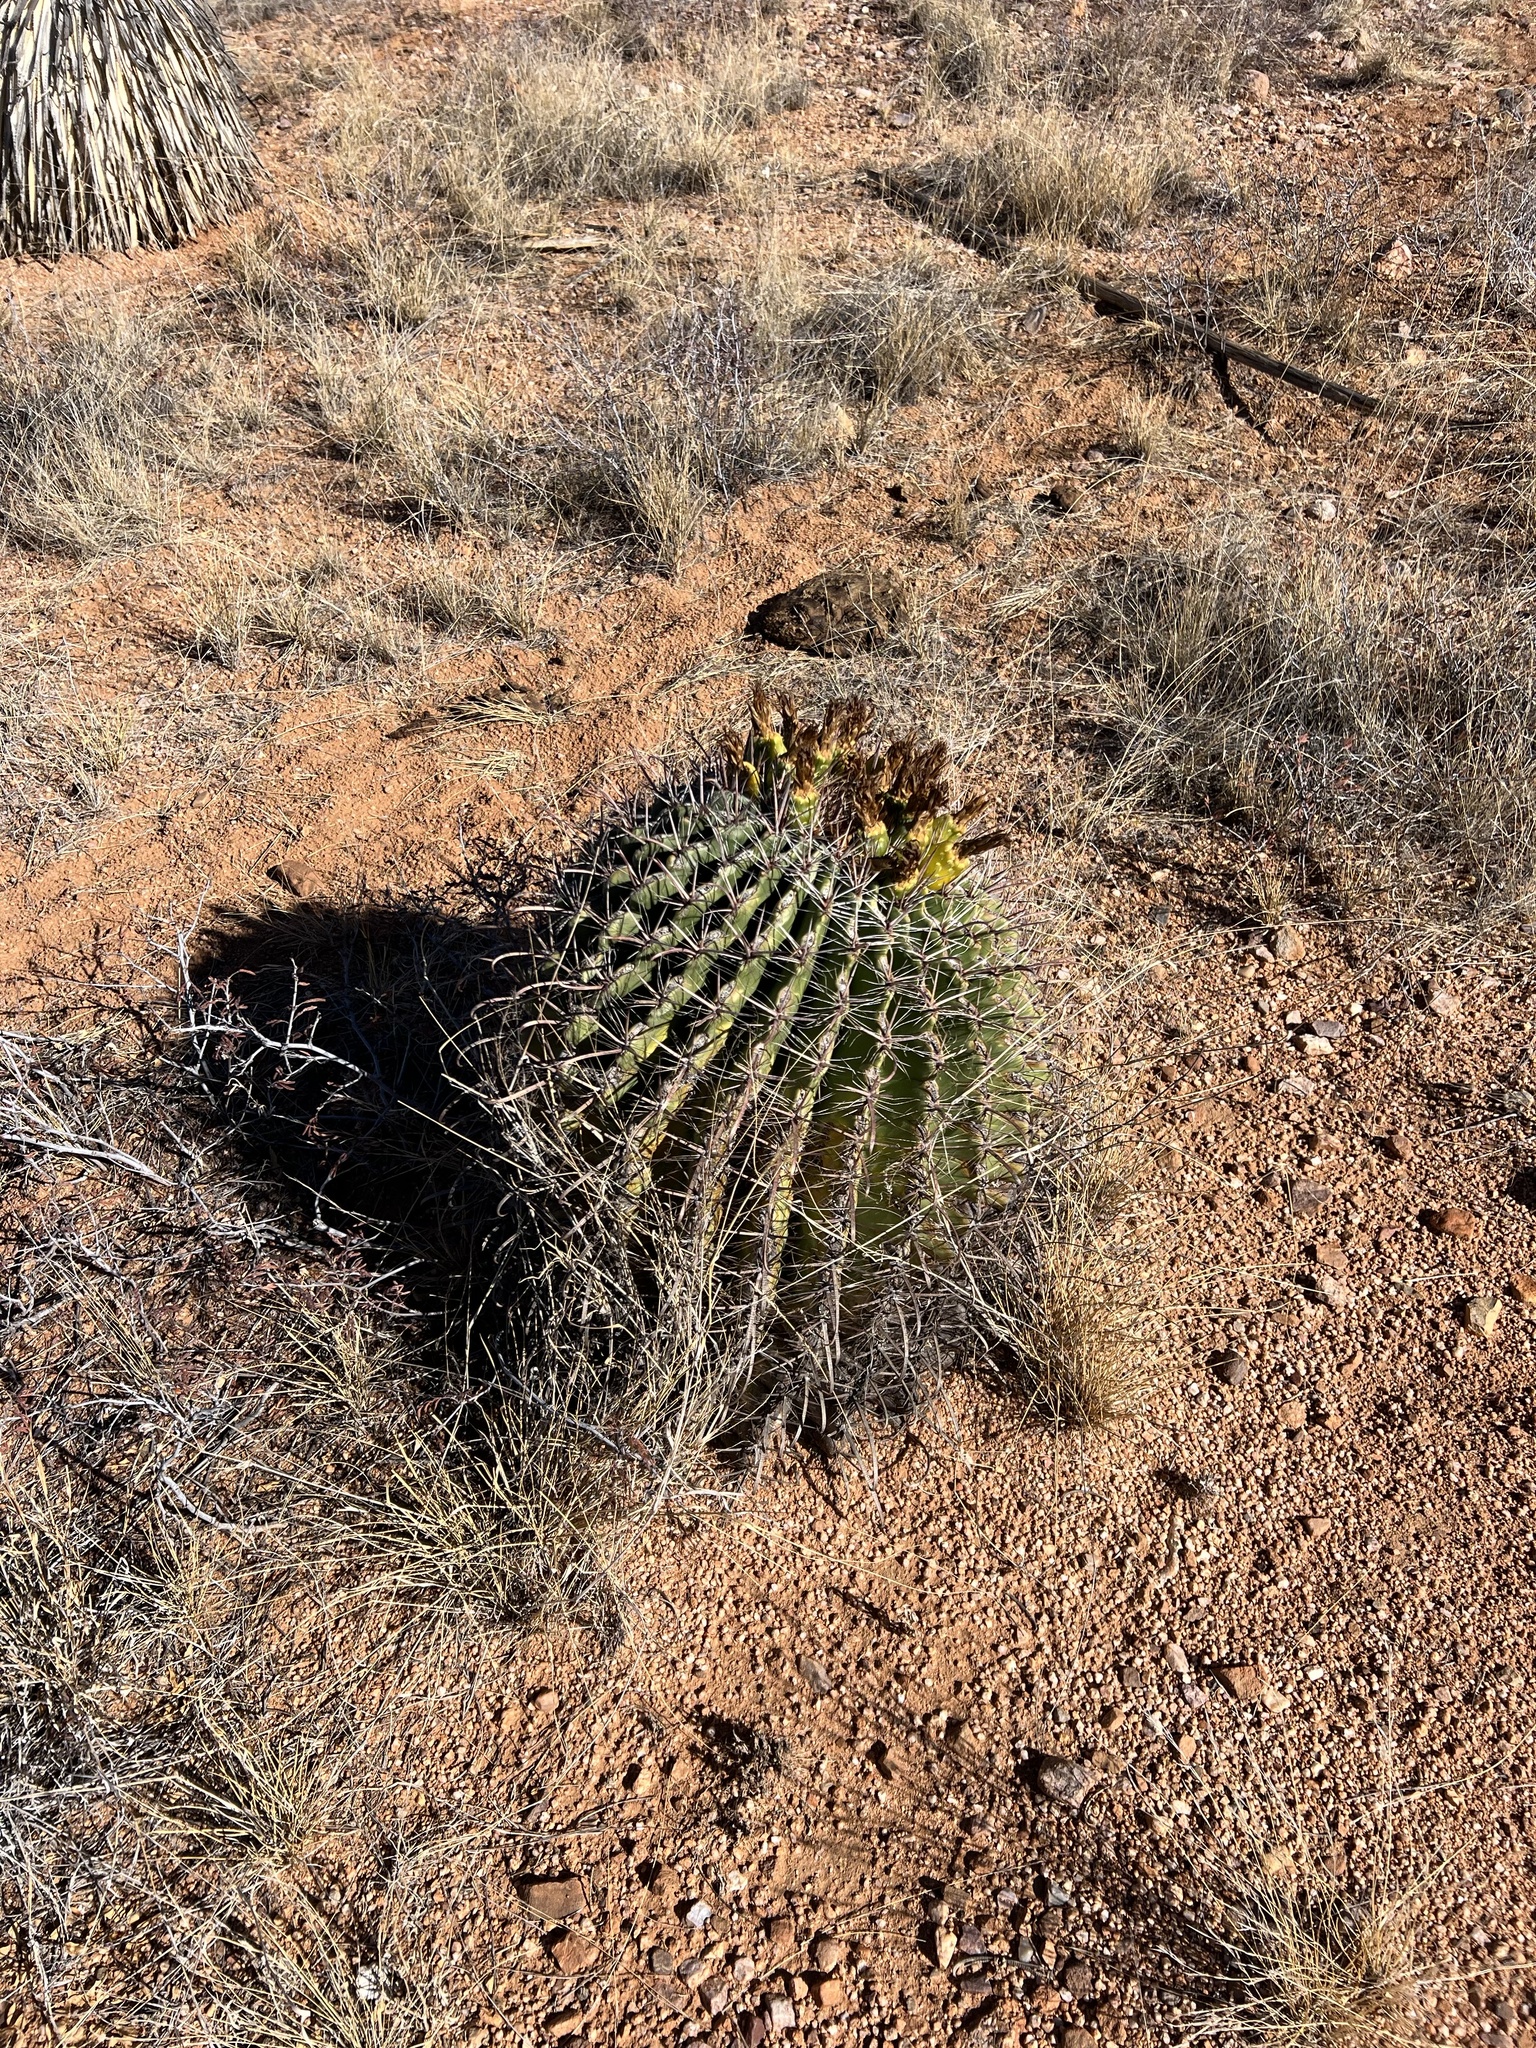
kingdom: Plantae
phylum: Tracheophyta
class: Magnoliopsida
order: Caryophyllales
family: Cactaceae
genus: Ferocactus
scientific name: Ferocactus wislizeni
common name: Candy barrel cactus
